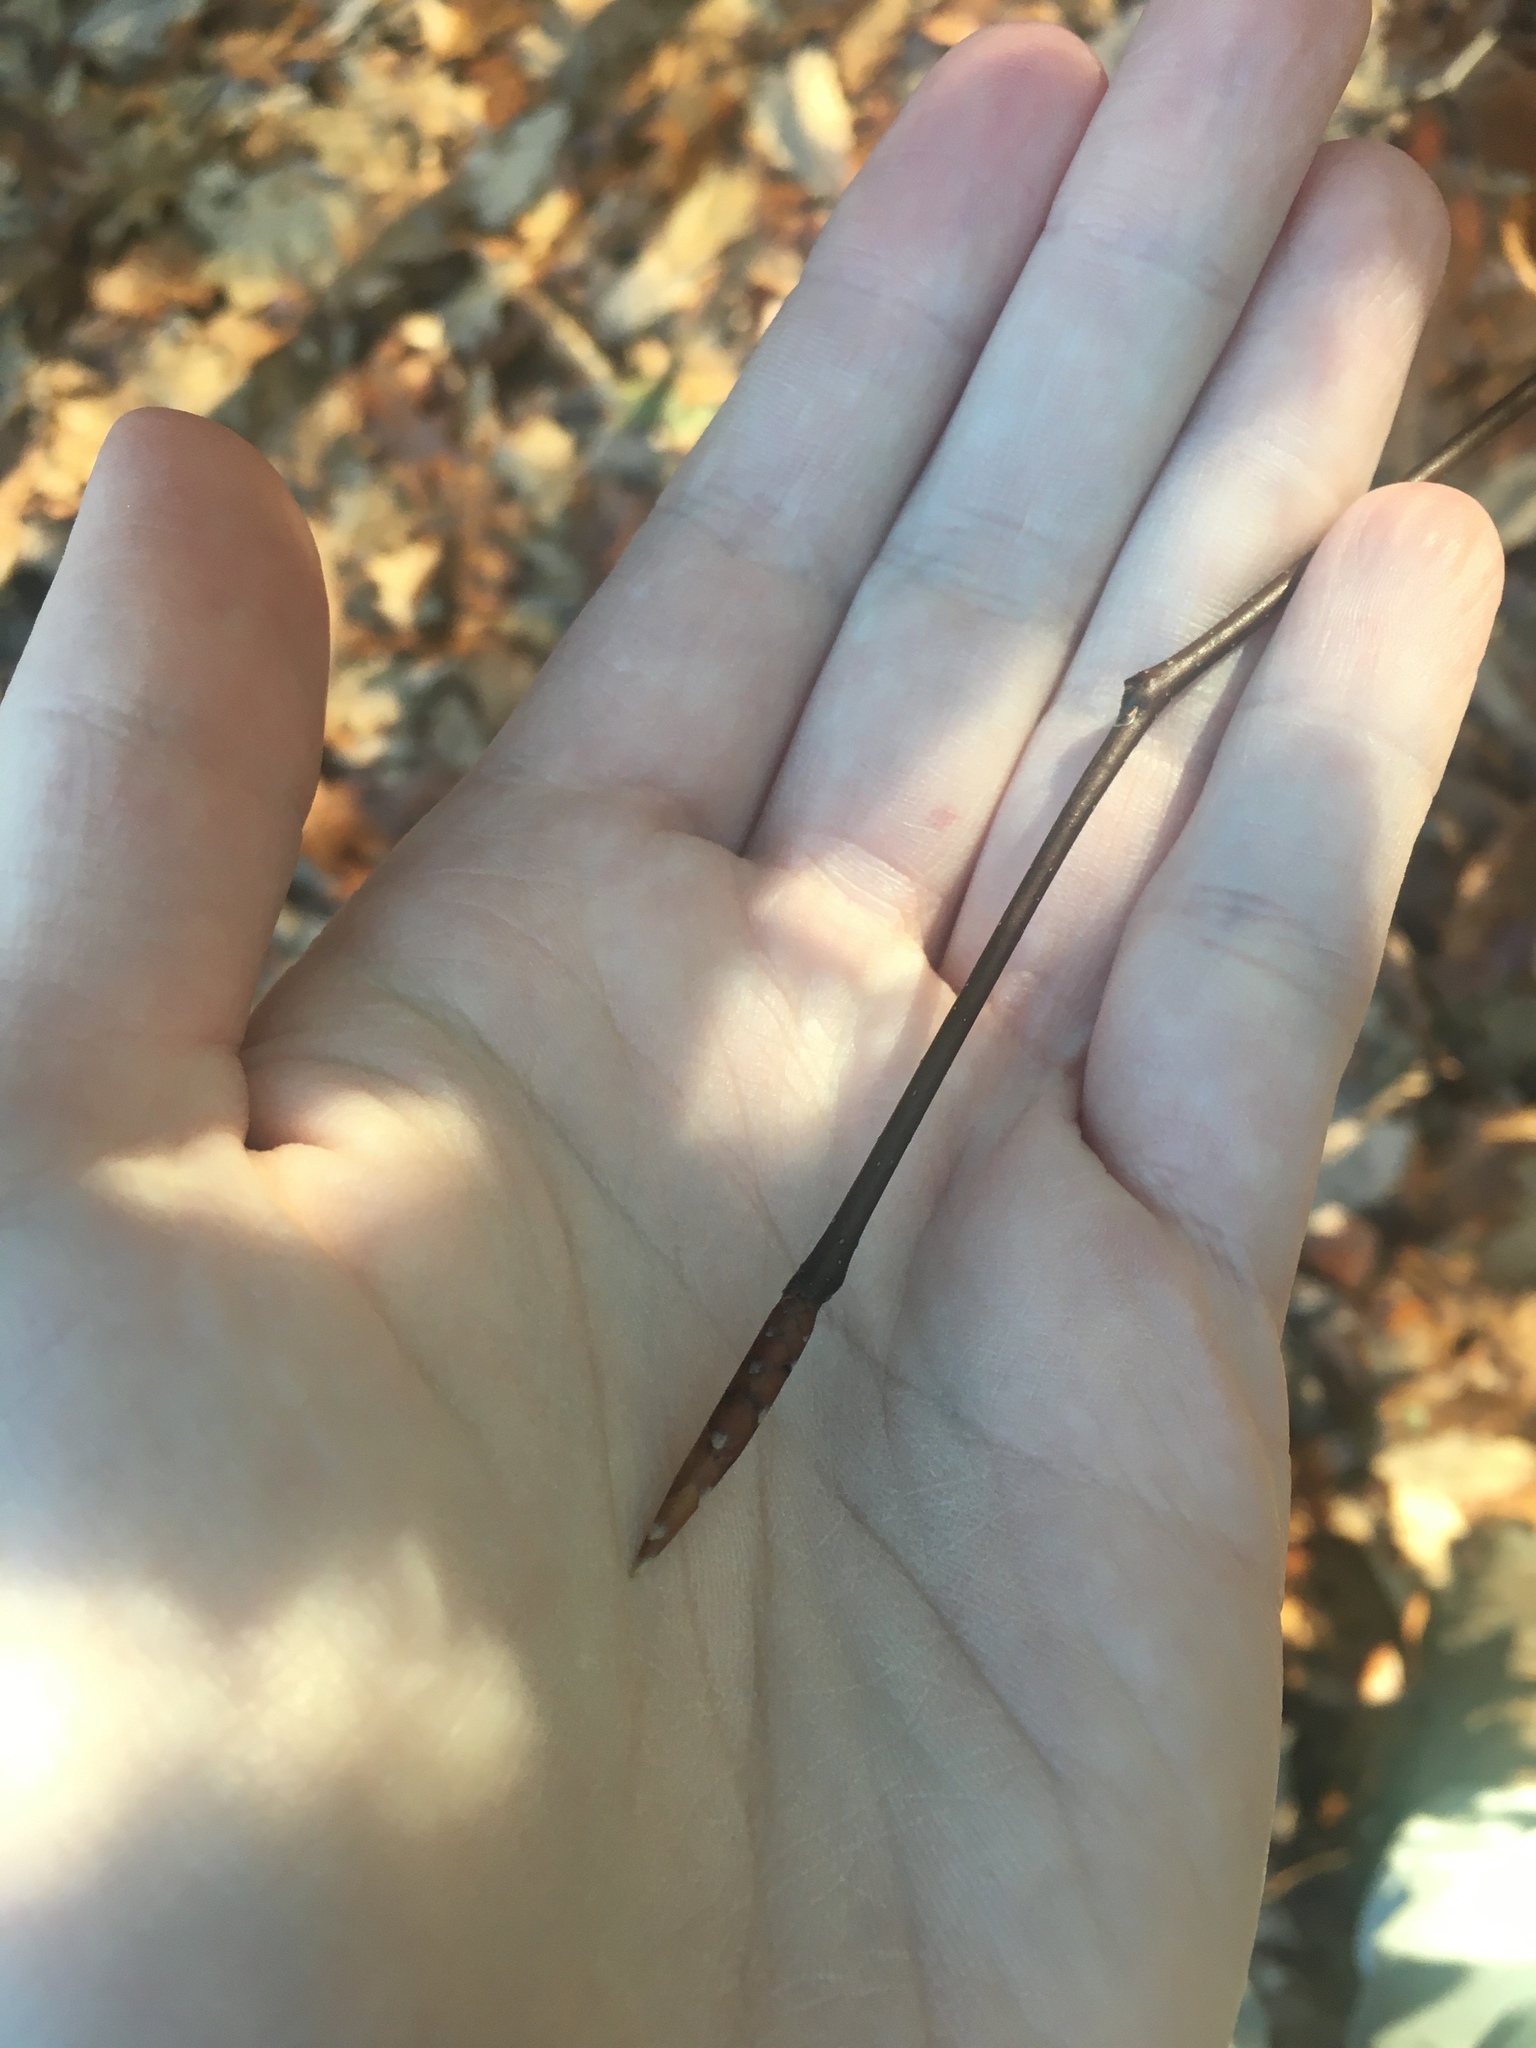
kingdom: Plantae
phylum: Tracheophyta
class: Magnoliopsida
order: Fagales
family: Fagaceae
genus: Fagus
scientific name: Fagus grandifolia
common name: American beech
